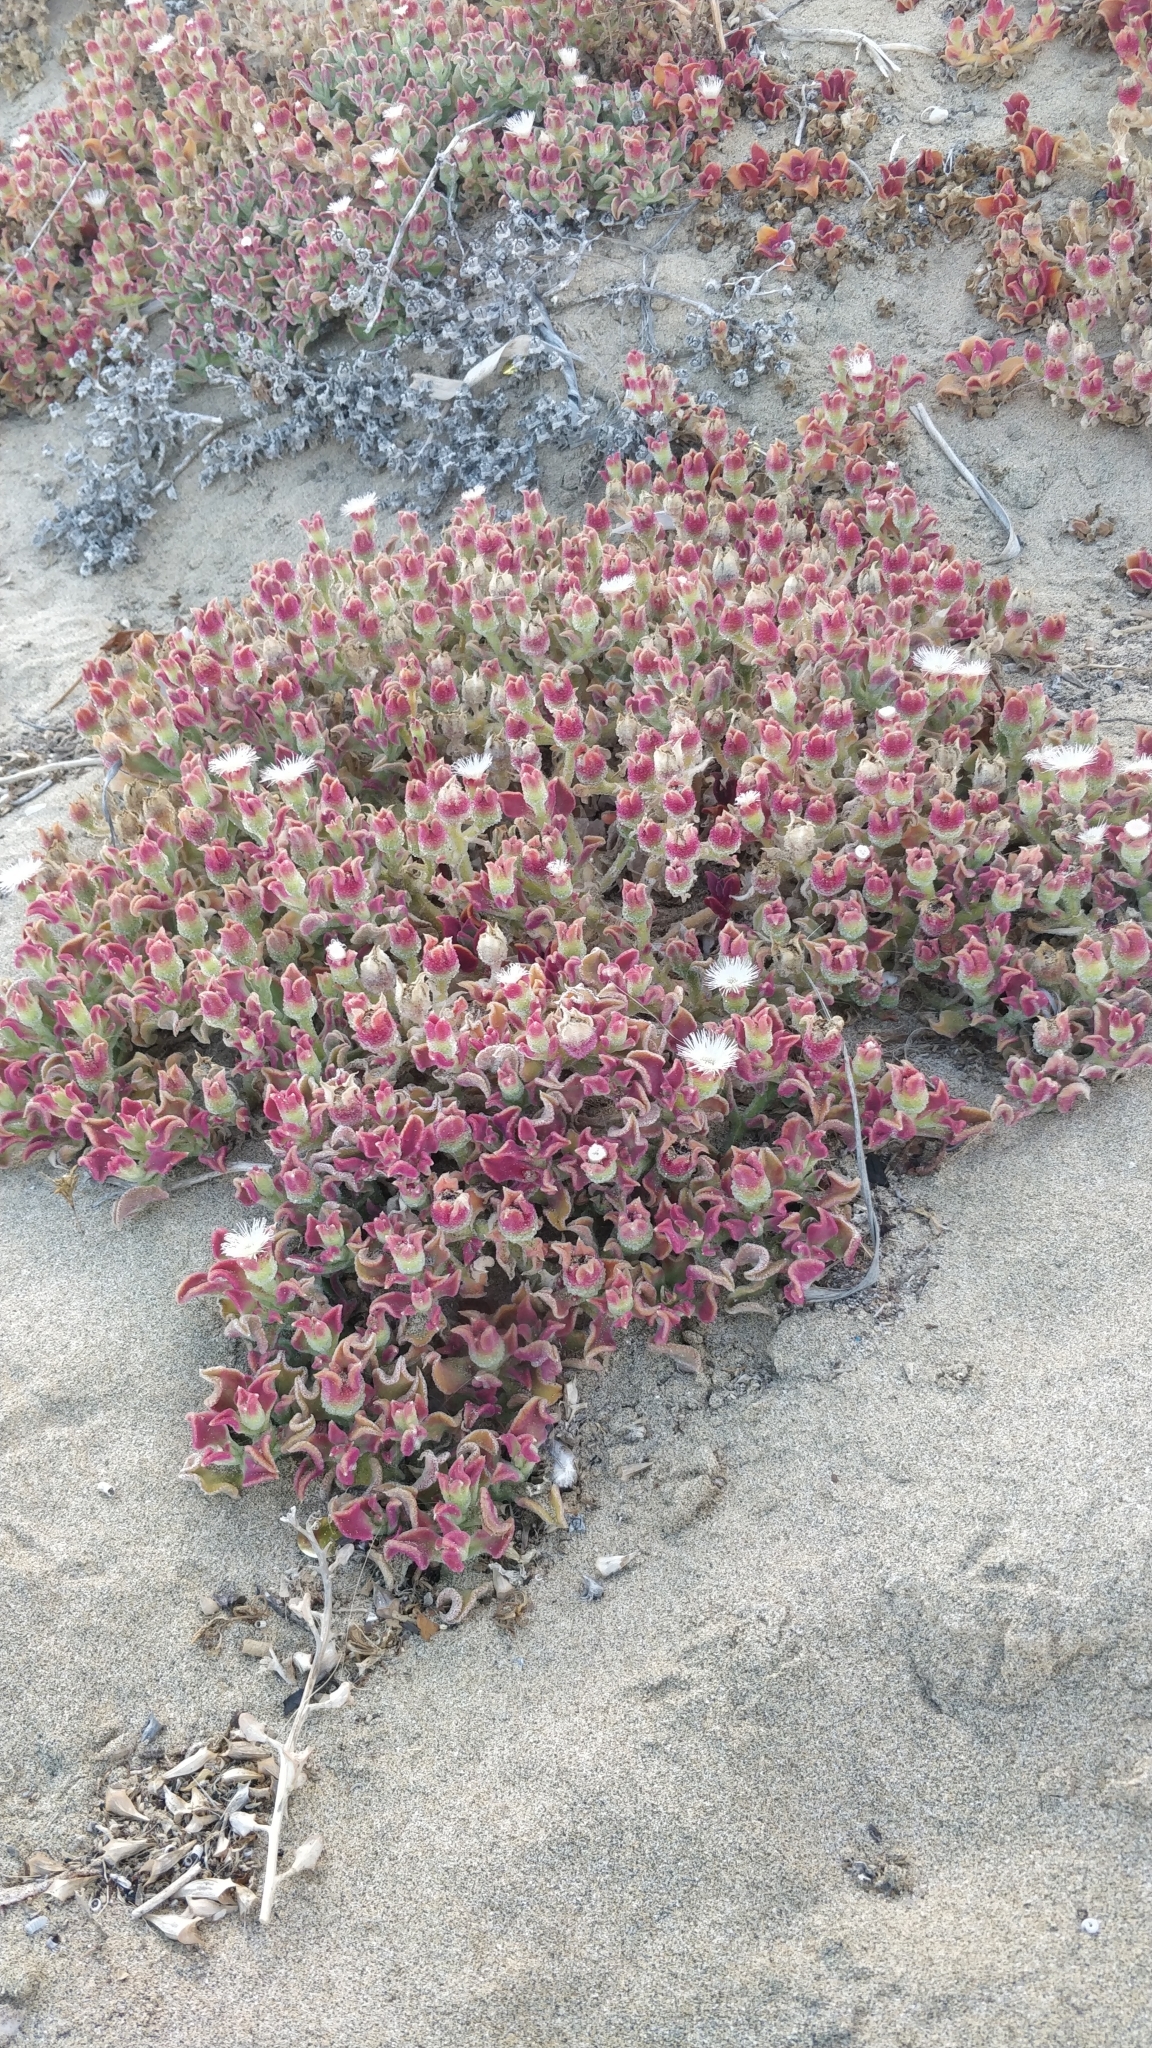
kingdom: Plantae
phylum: Tracheophyta
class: Magnoliopsida
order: Caryophyllales
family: Aizoaceae
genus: Mesembryanthemum
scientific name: Mesembryanthemum crystallinum
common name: Common iceplant
